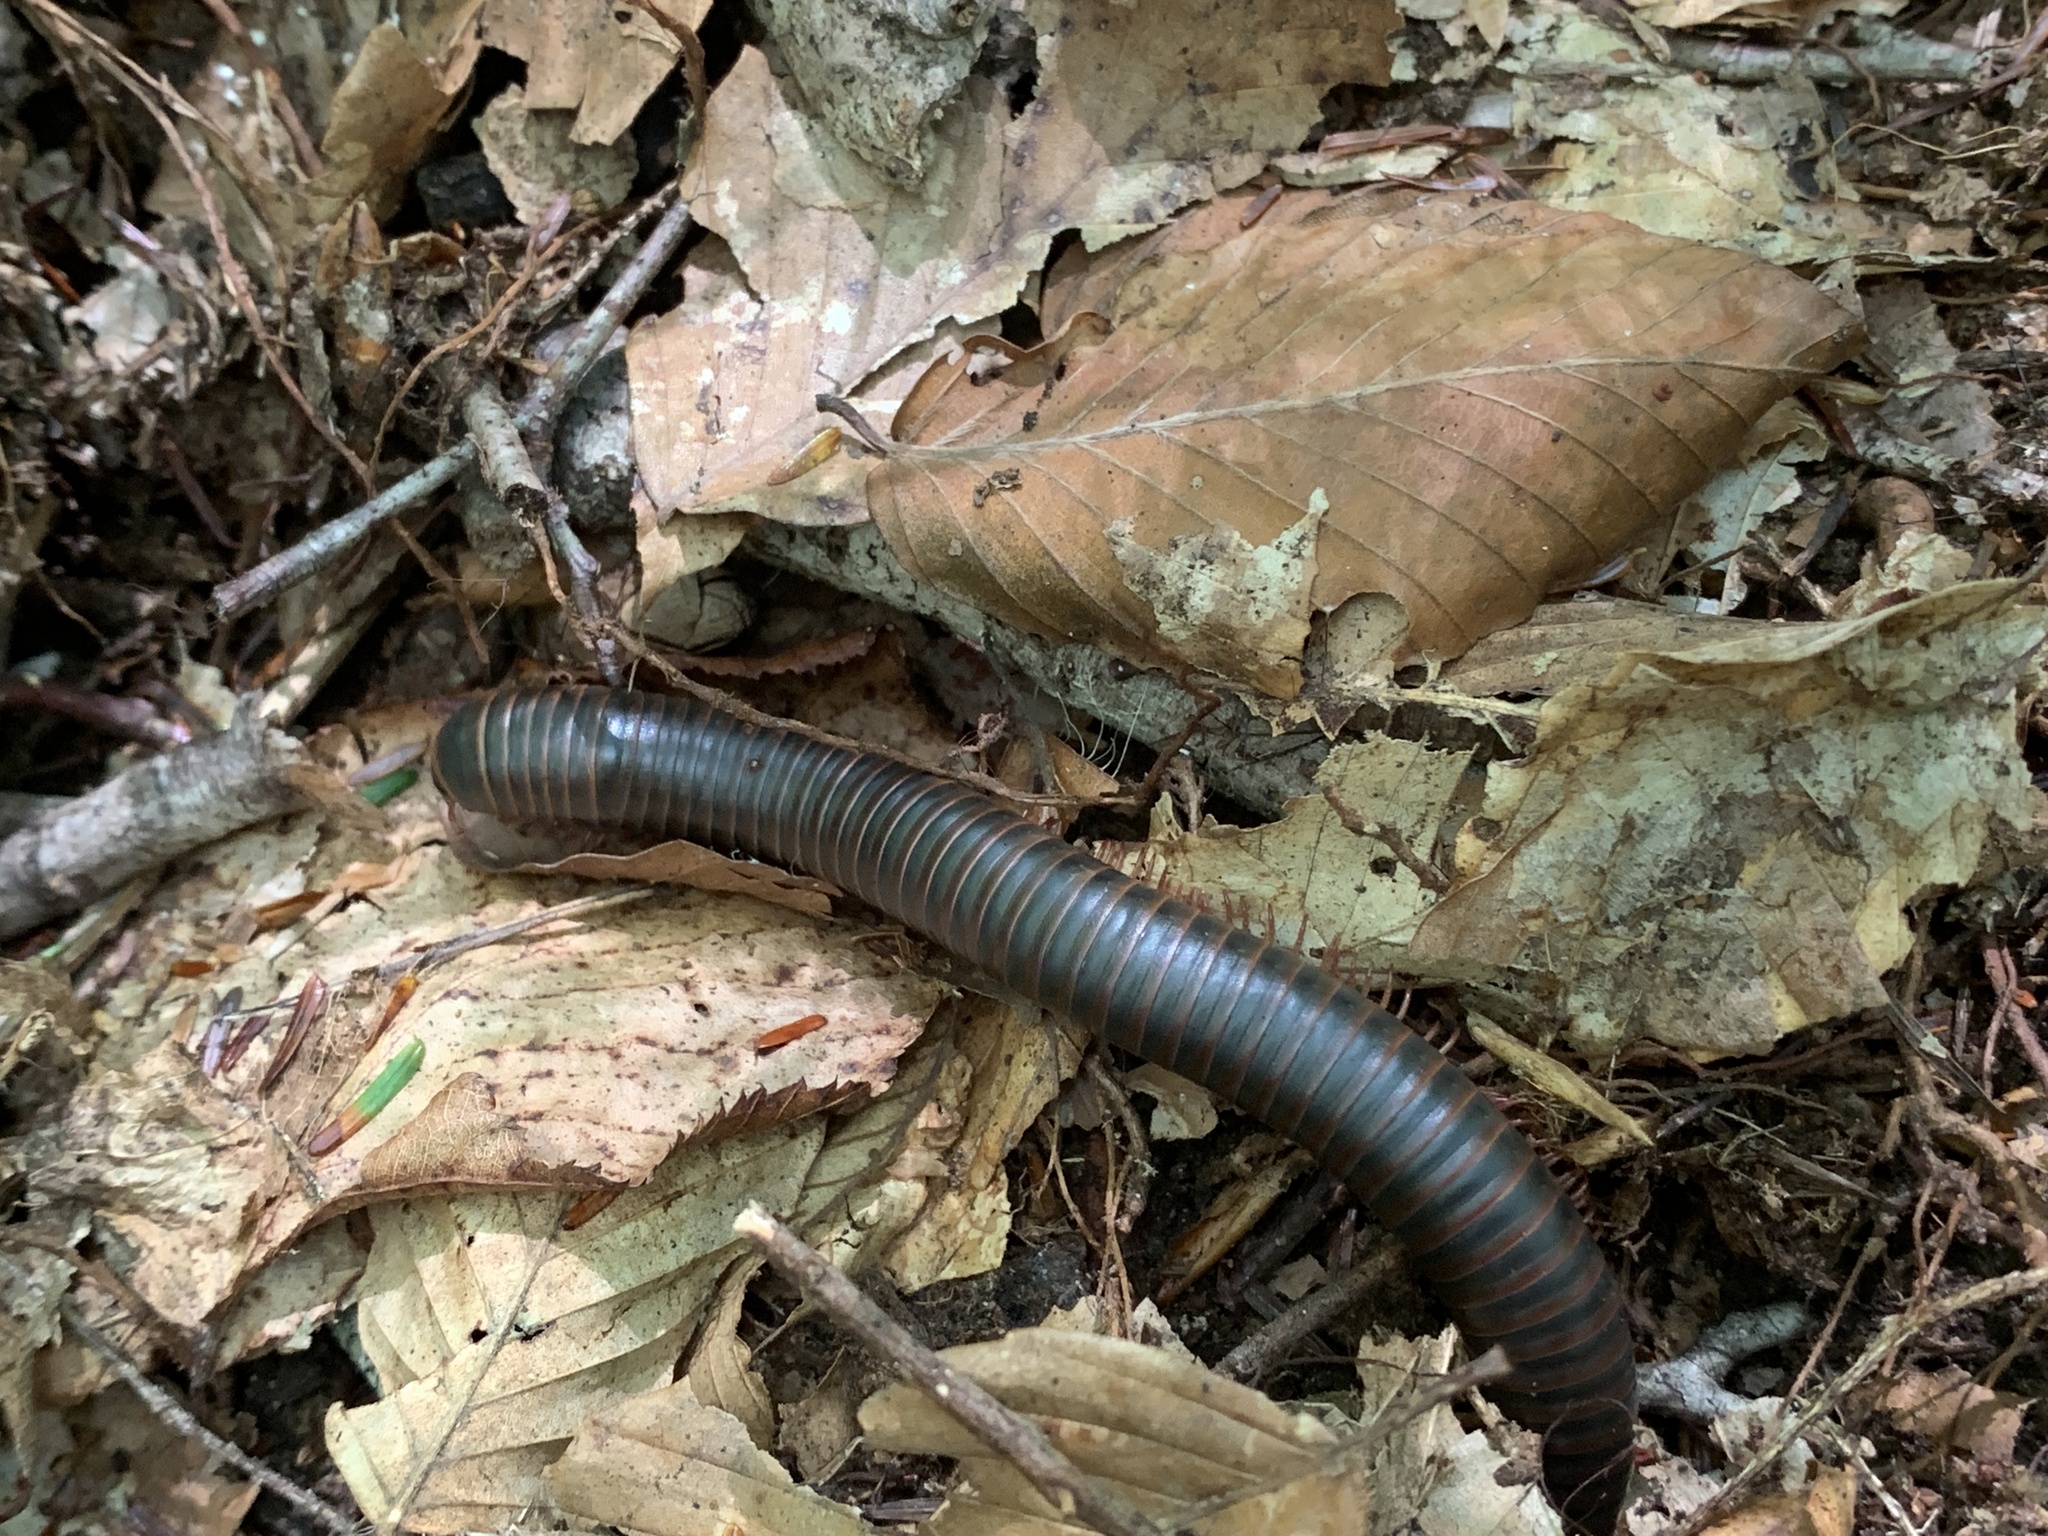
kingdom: Animalia
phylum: Arthropoda
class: Diplopoda
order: Spirobolida
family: Spirobolidae
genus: Narceus
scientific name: Narceus
